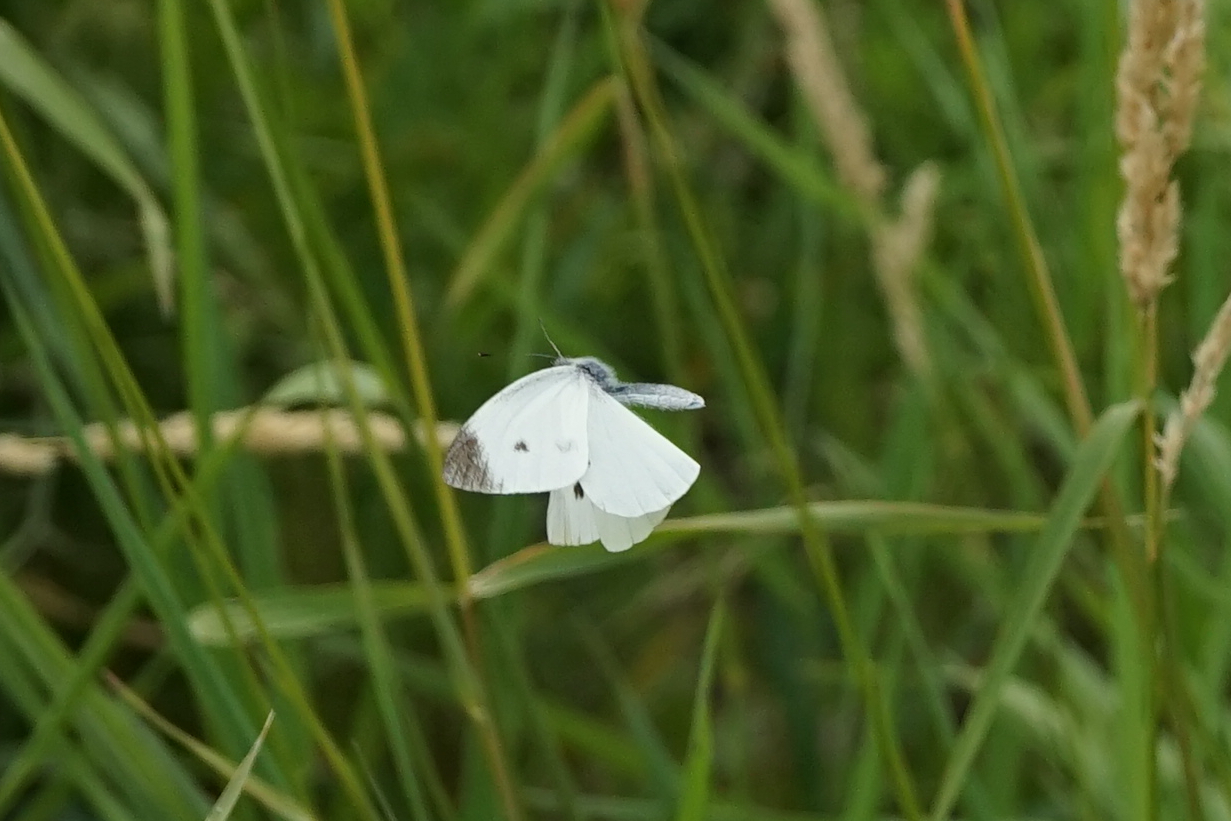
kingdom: Animalia
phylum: Arthropoda
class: Insecta
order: Lepidoptera
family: Pieridae
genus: Pieris
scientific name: Pieris rapae
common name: Small white
